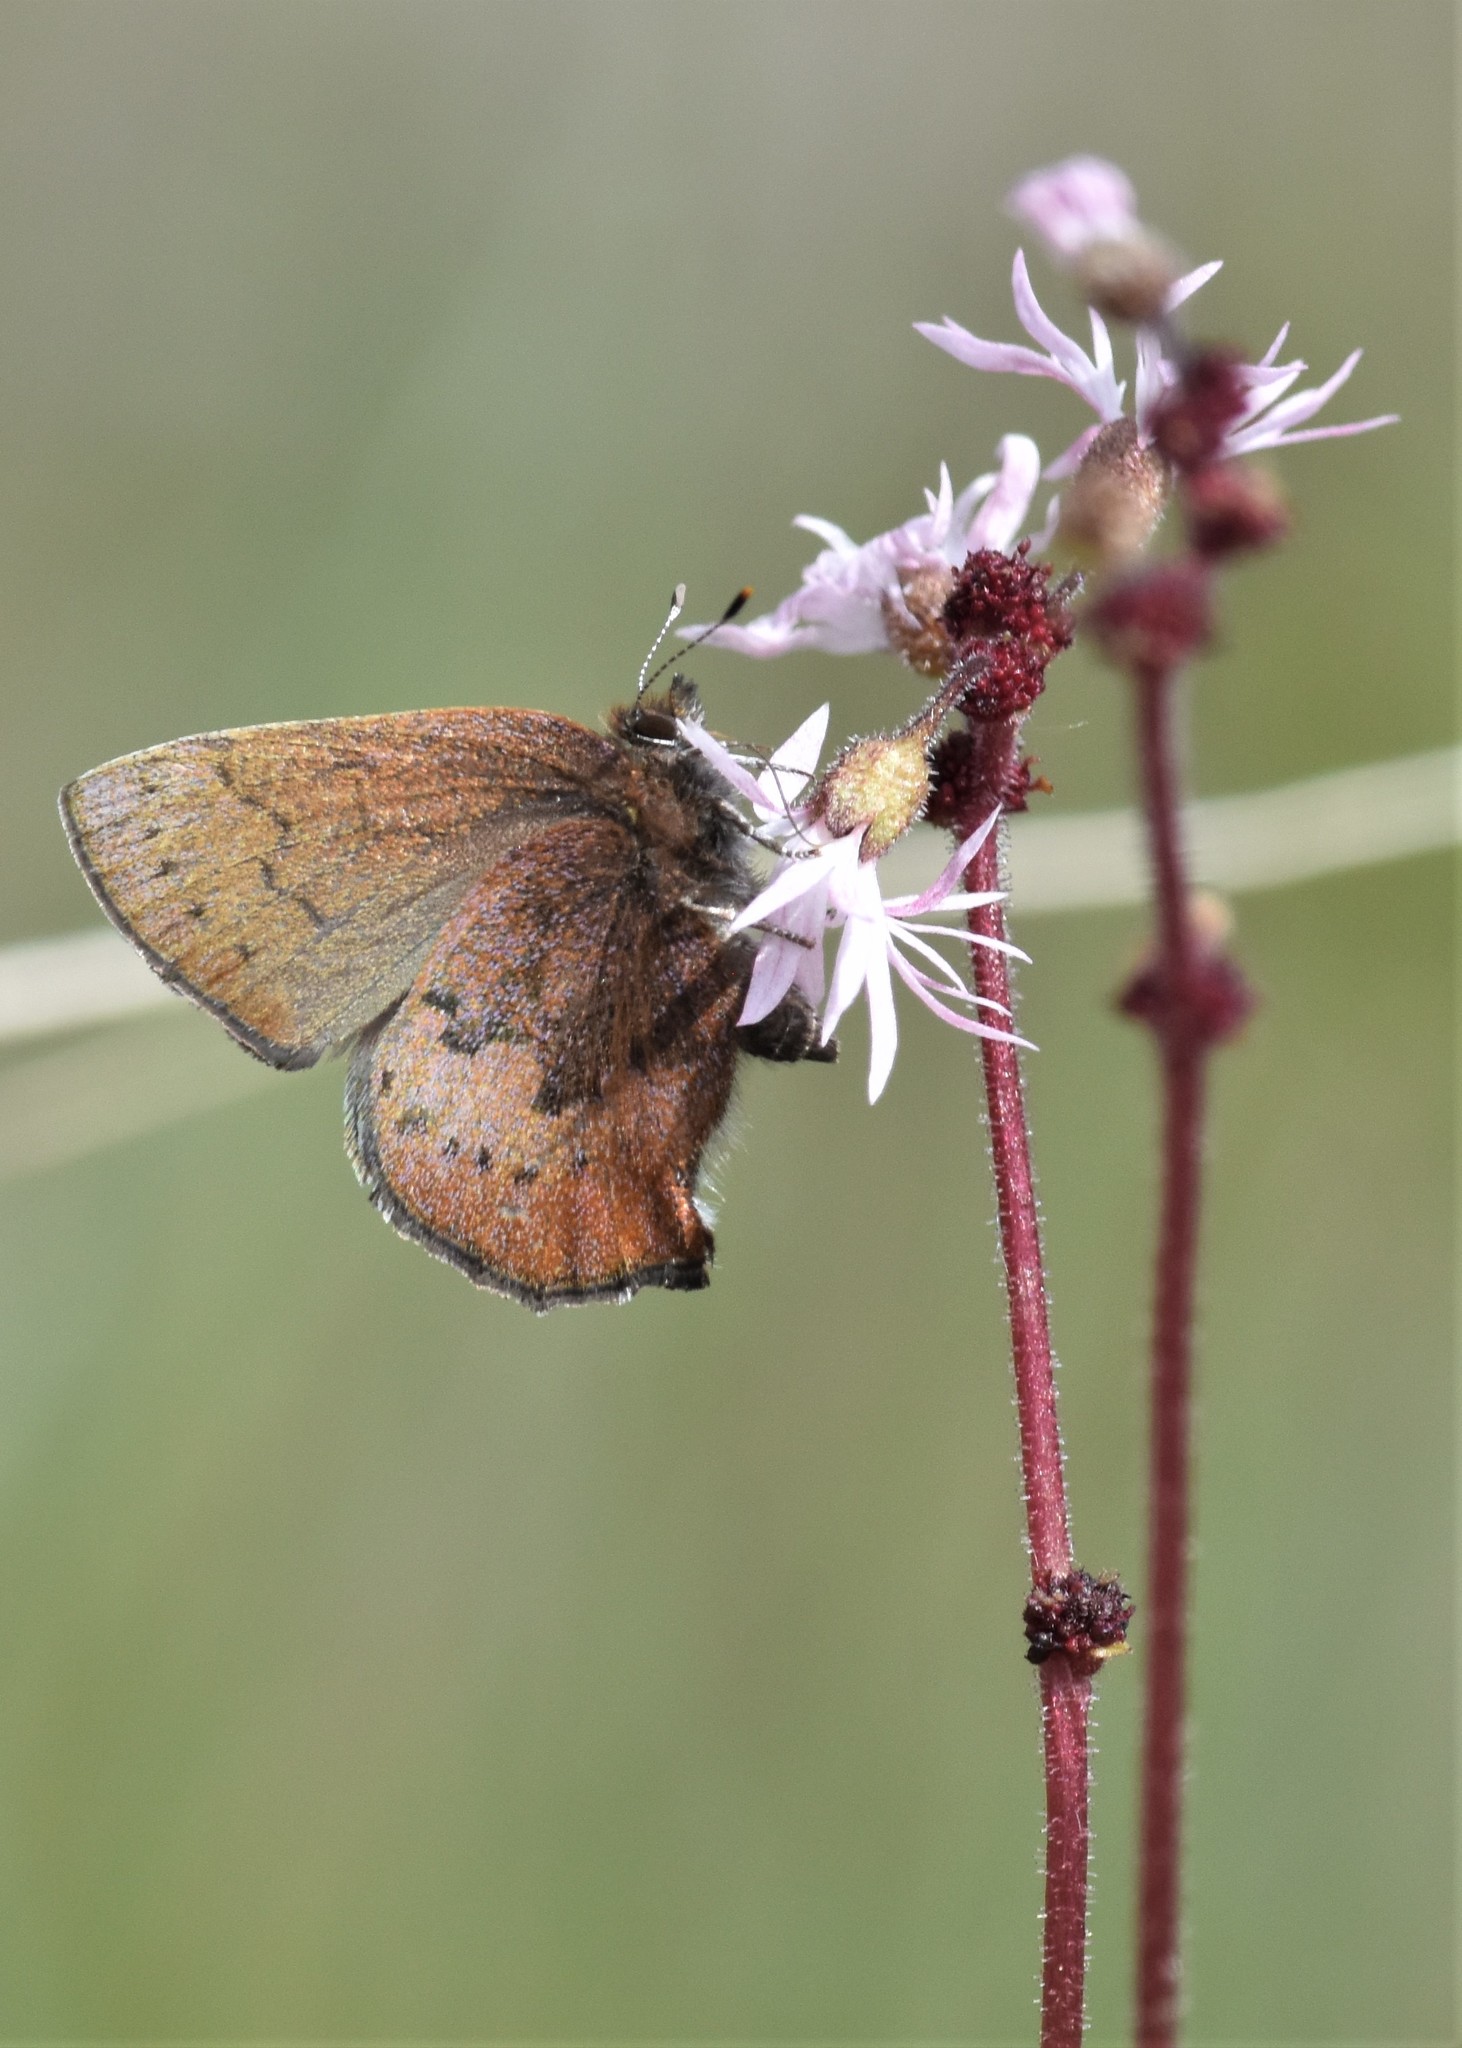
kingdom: Animalia
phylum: Arthropoda
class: Insecta
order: Lepidoptera
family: Lycaenidae
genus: Incisalia
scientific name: Incisalia irioides
